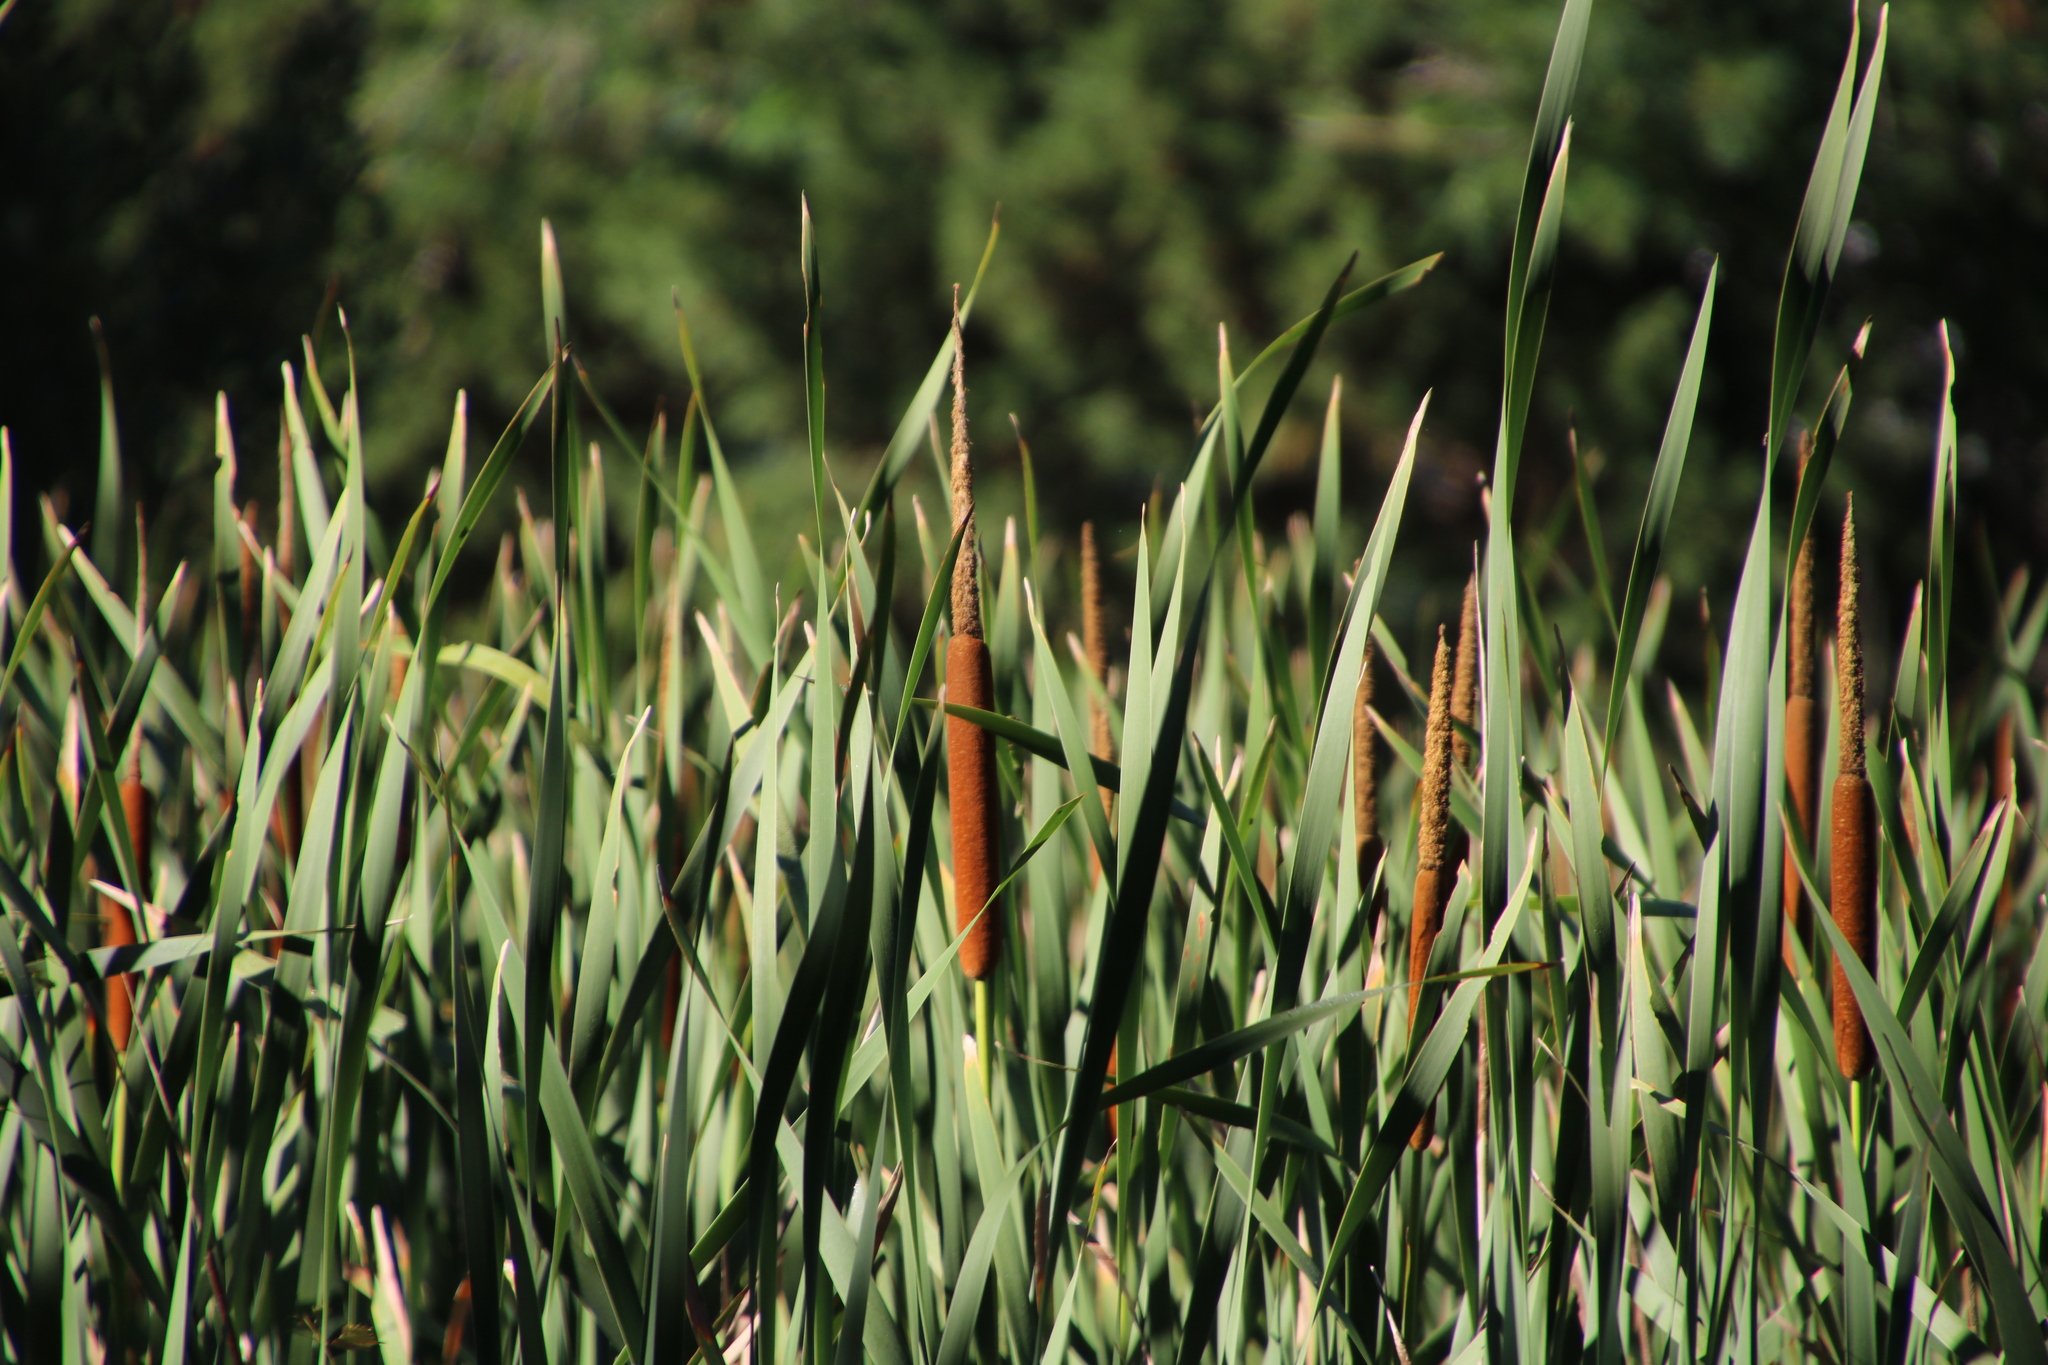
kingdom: Plantae
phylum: Tracheophyta
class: Liliopsida
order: Poales
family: Typhaceae
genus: Typha
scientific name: Typha capensis
